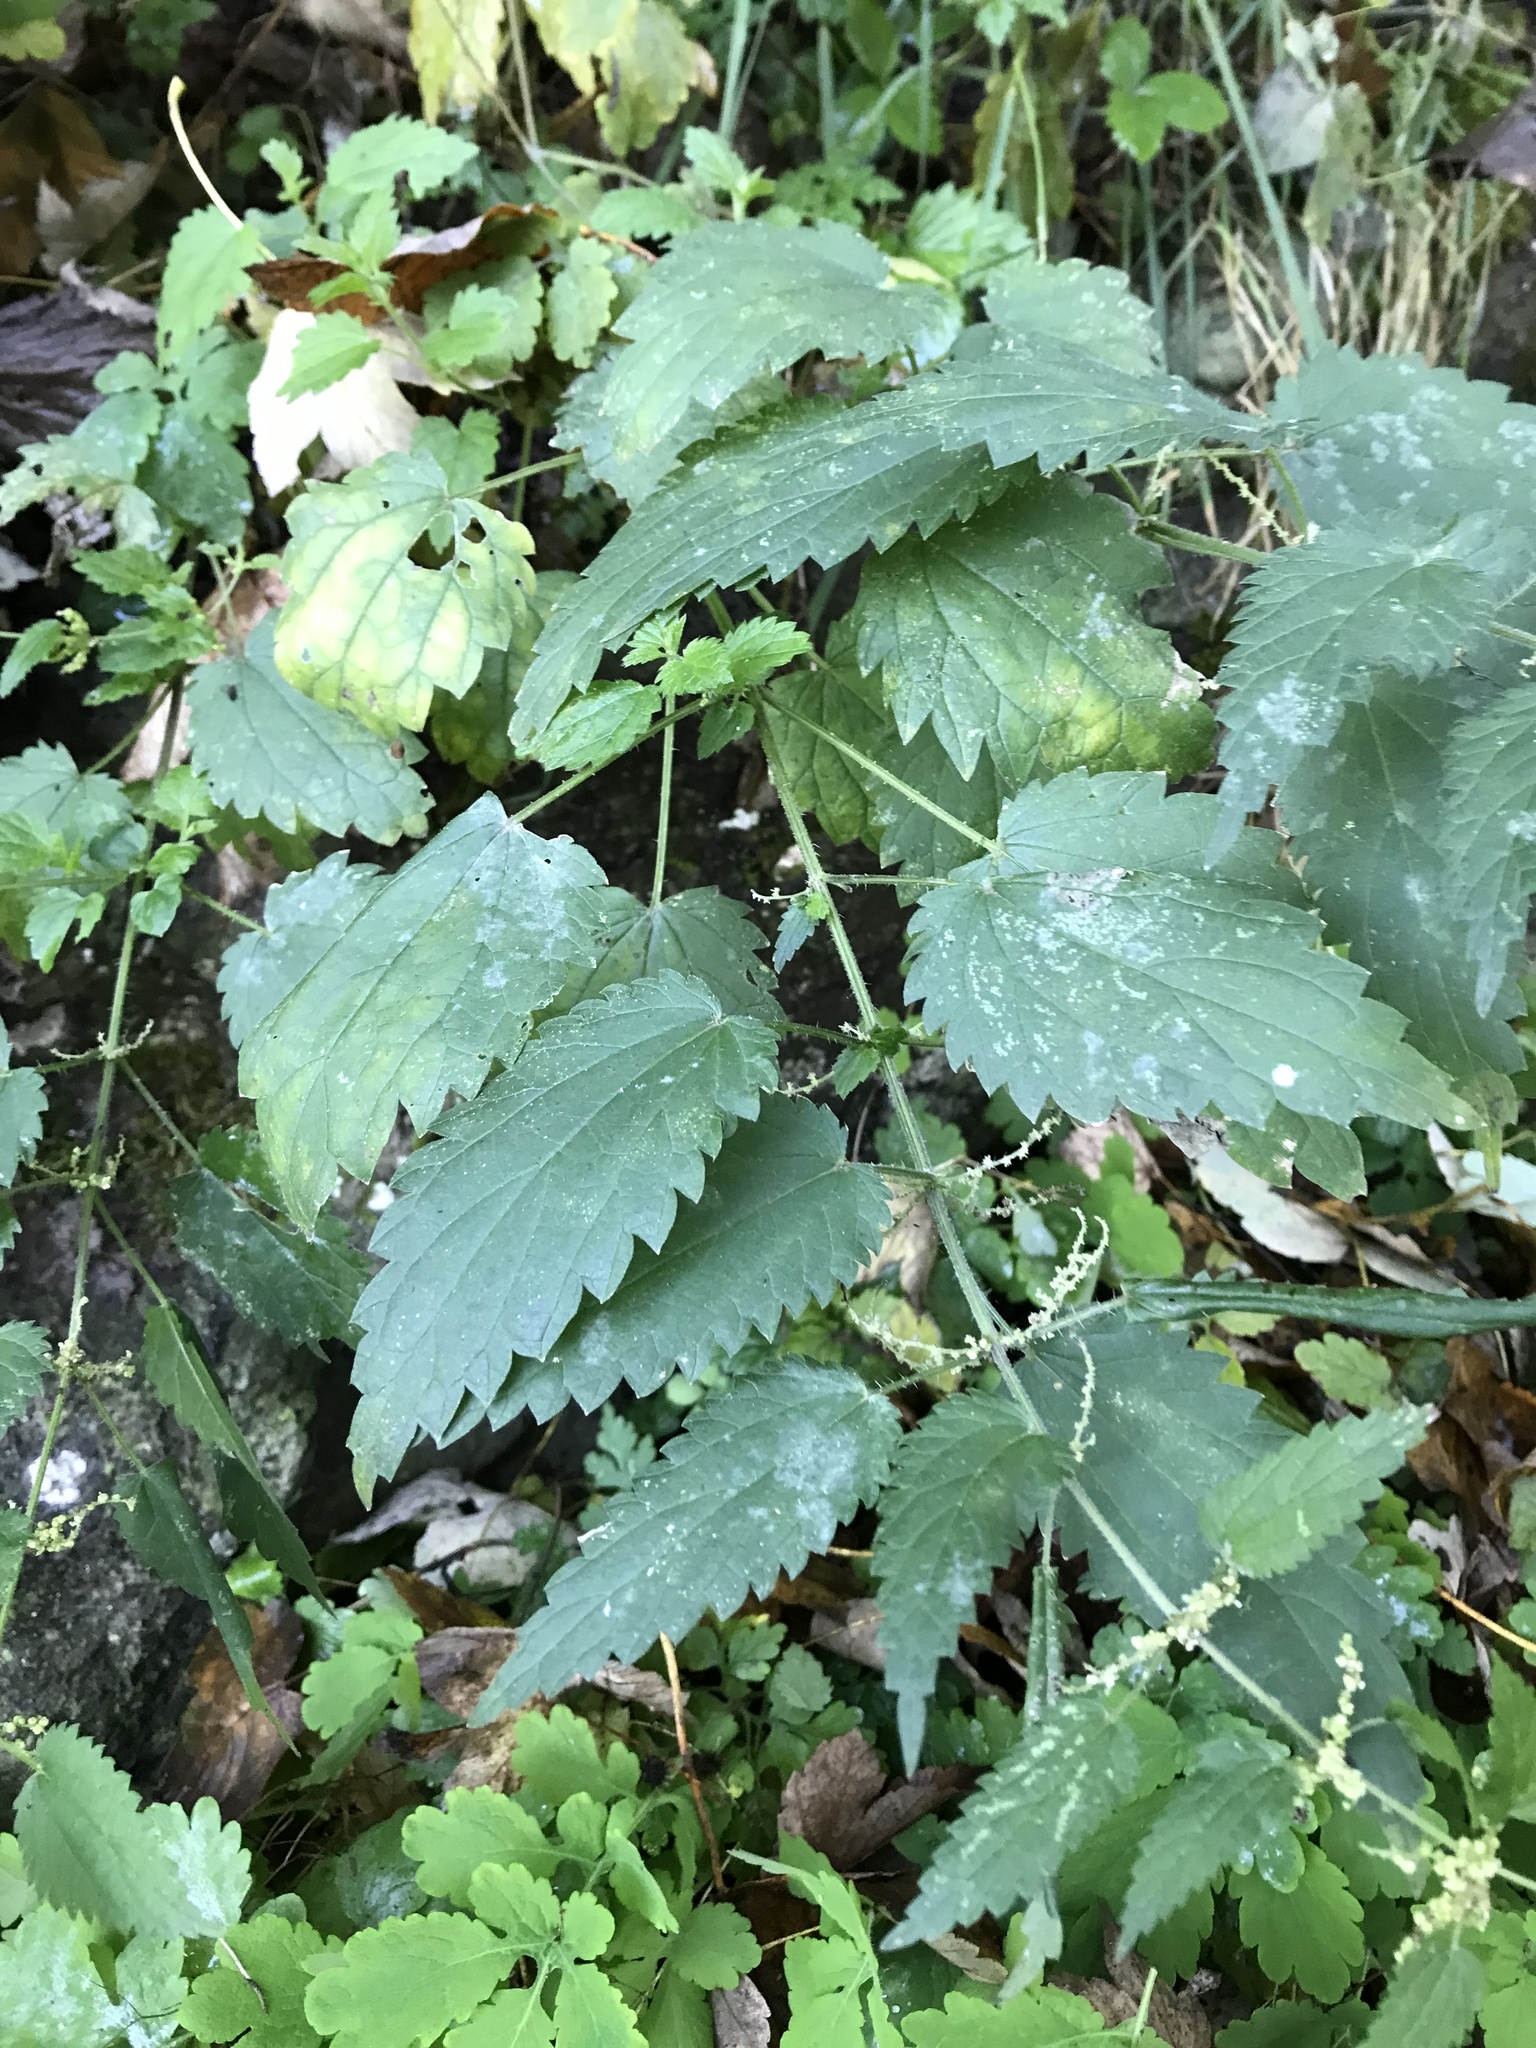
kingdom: Plantae
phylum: Tracheophyta
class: Magnoliopsida
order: Rosales
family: Urticaceae
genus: Urtica
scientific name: Urtica dioica
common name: Common nettle
